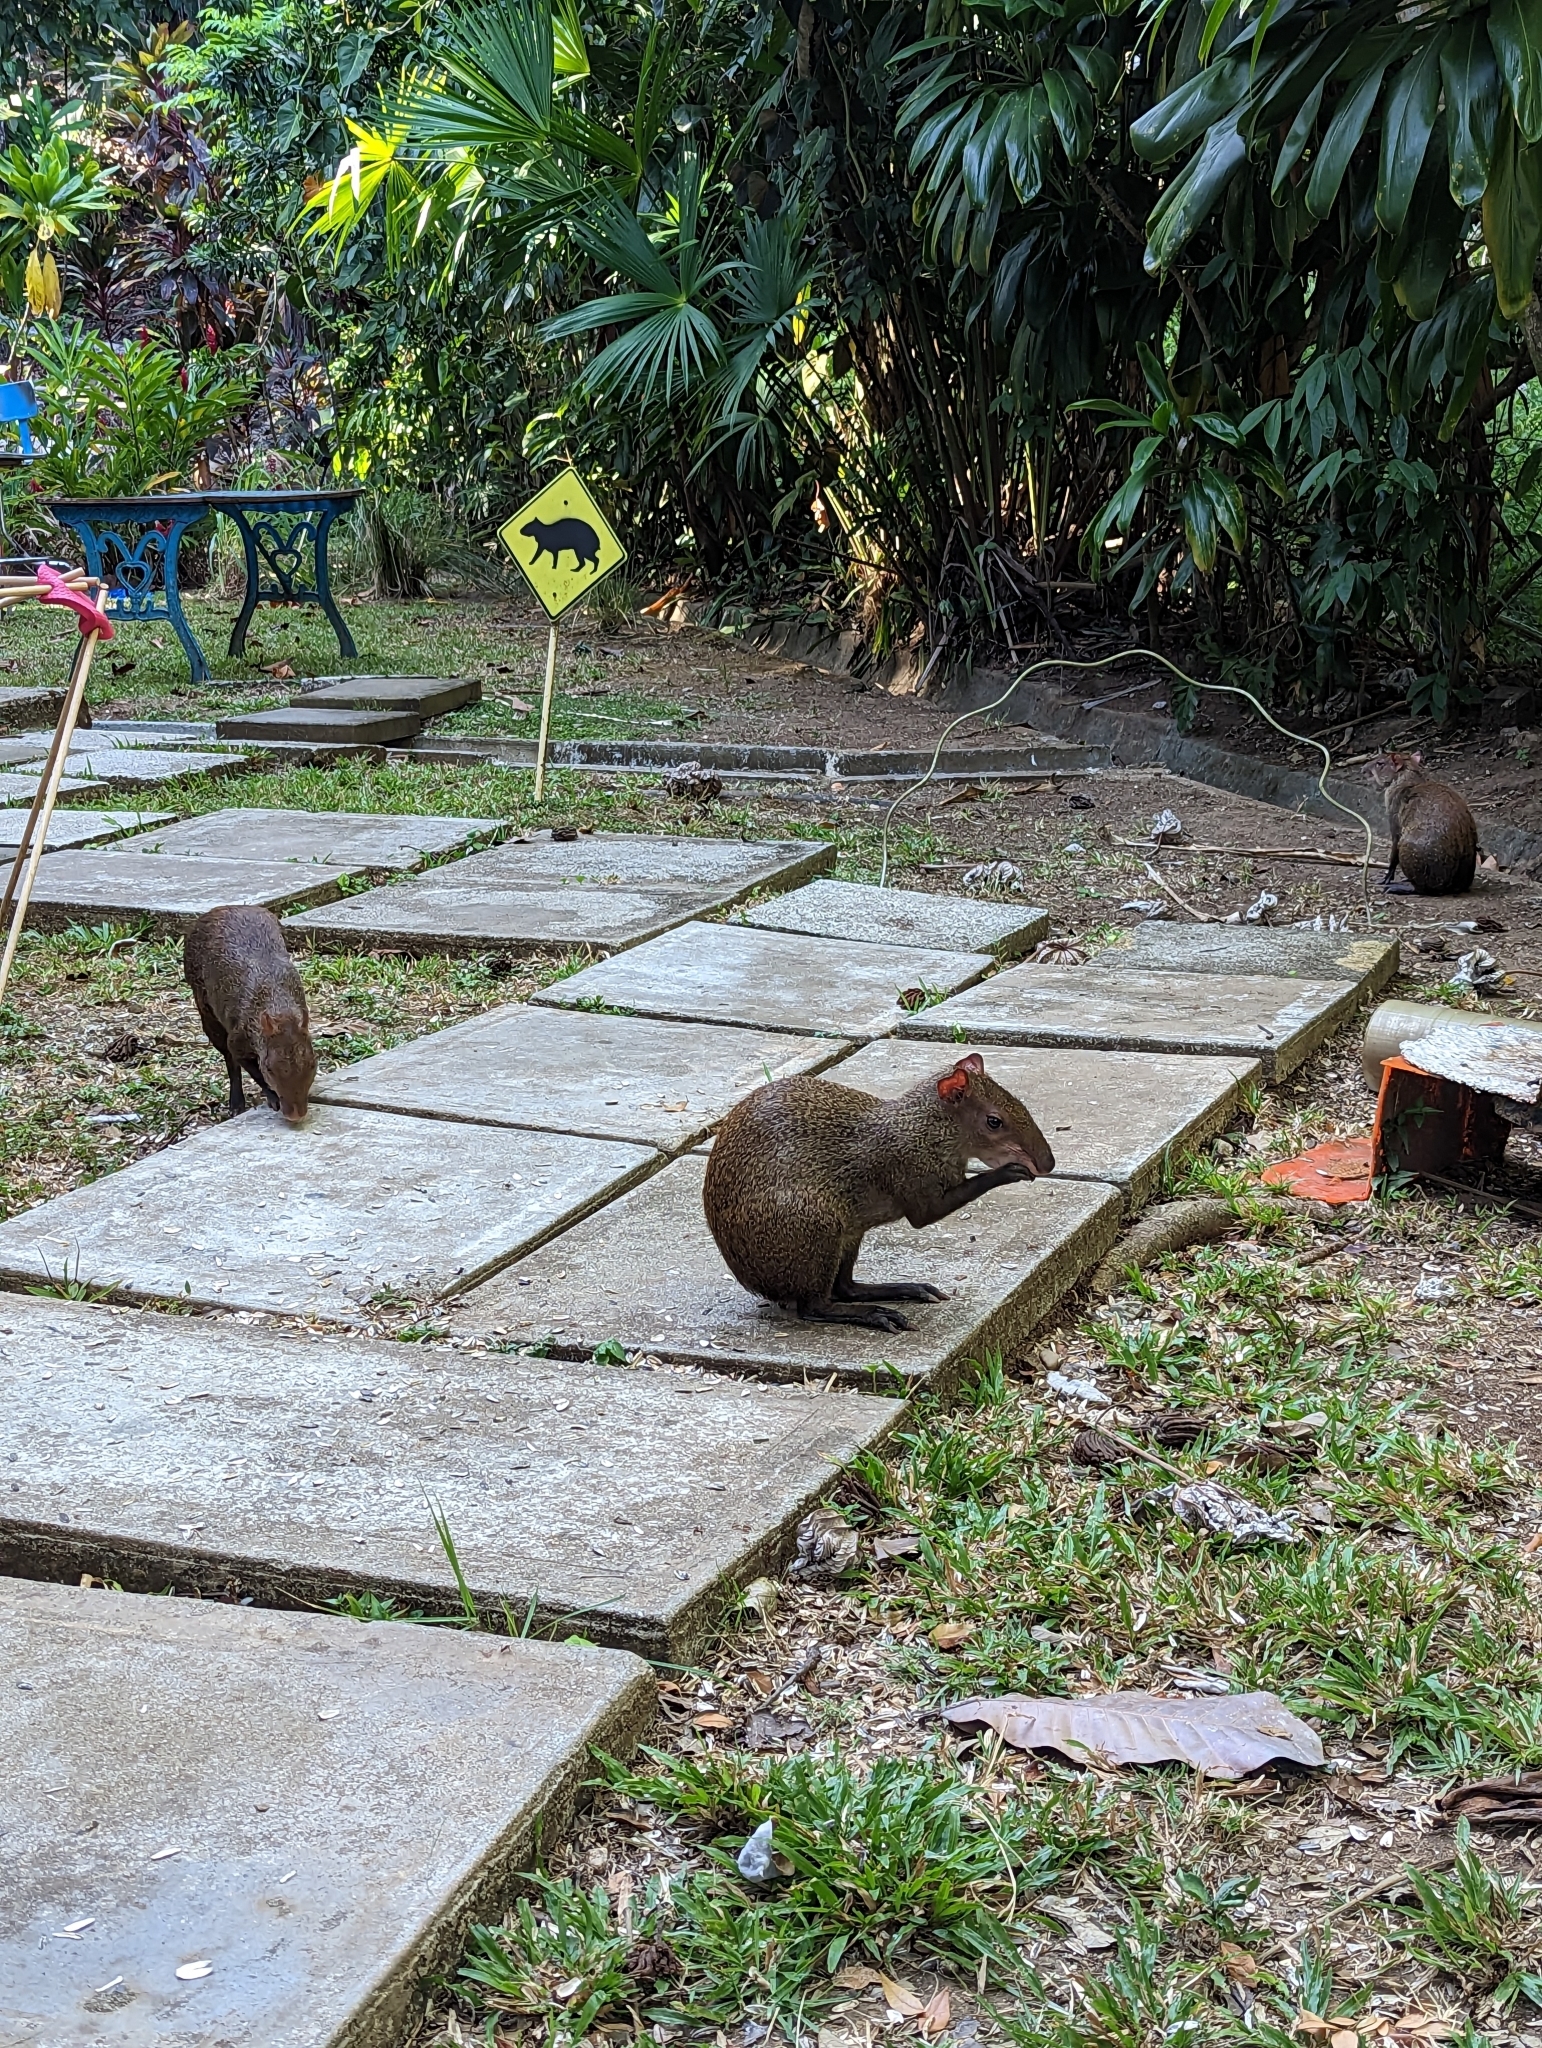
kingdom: Animalia
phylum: Chordata
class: Mammalia
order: Rodentia
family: Dasyproctidae
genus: Dasyprocta
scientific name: Dasyprocta punctata
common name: Central american agouti
